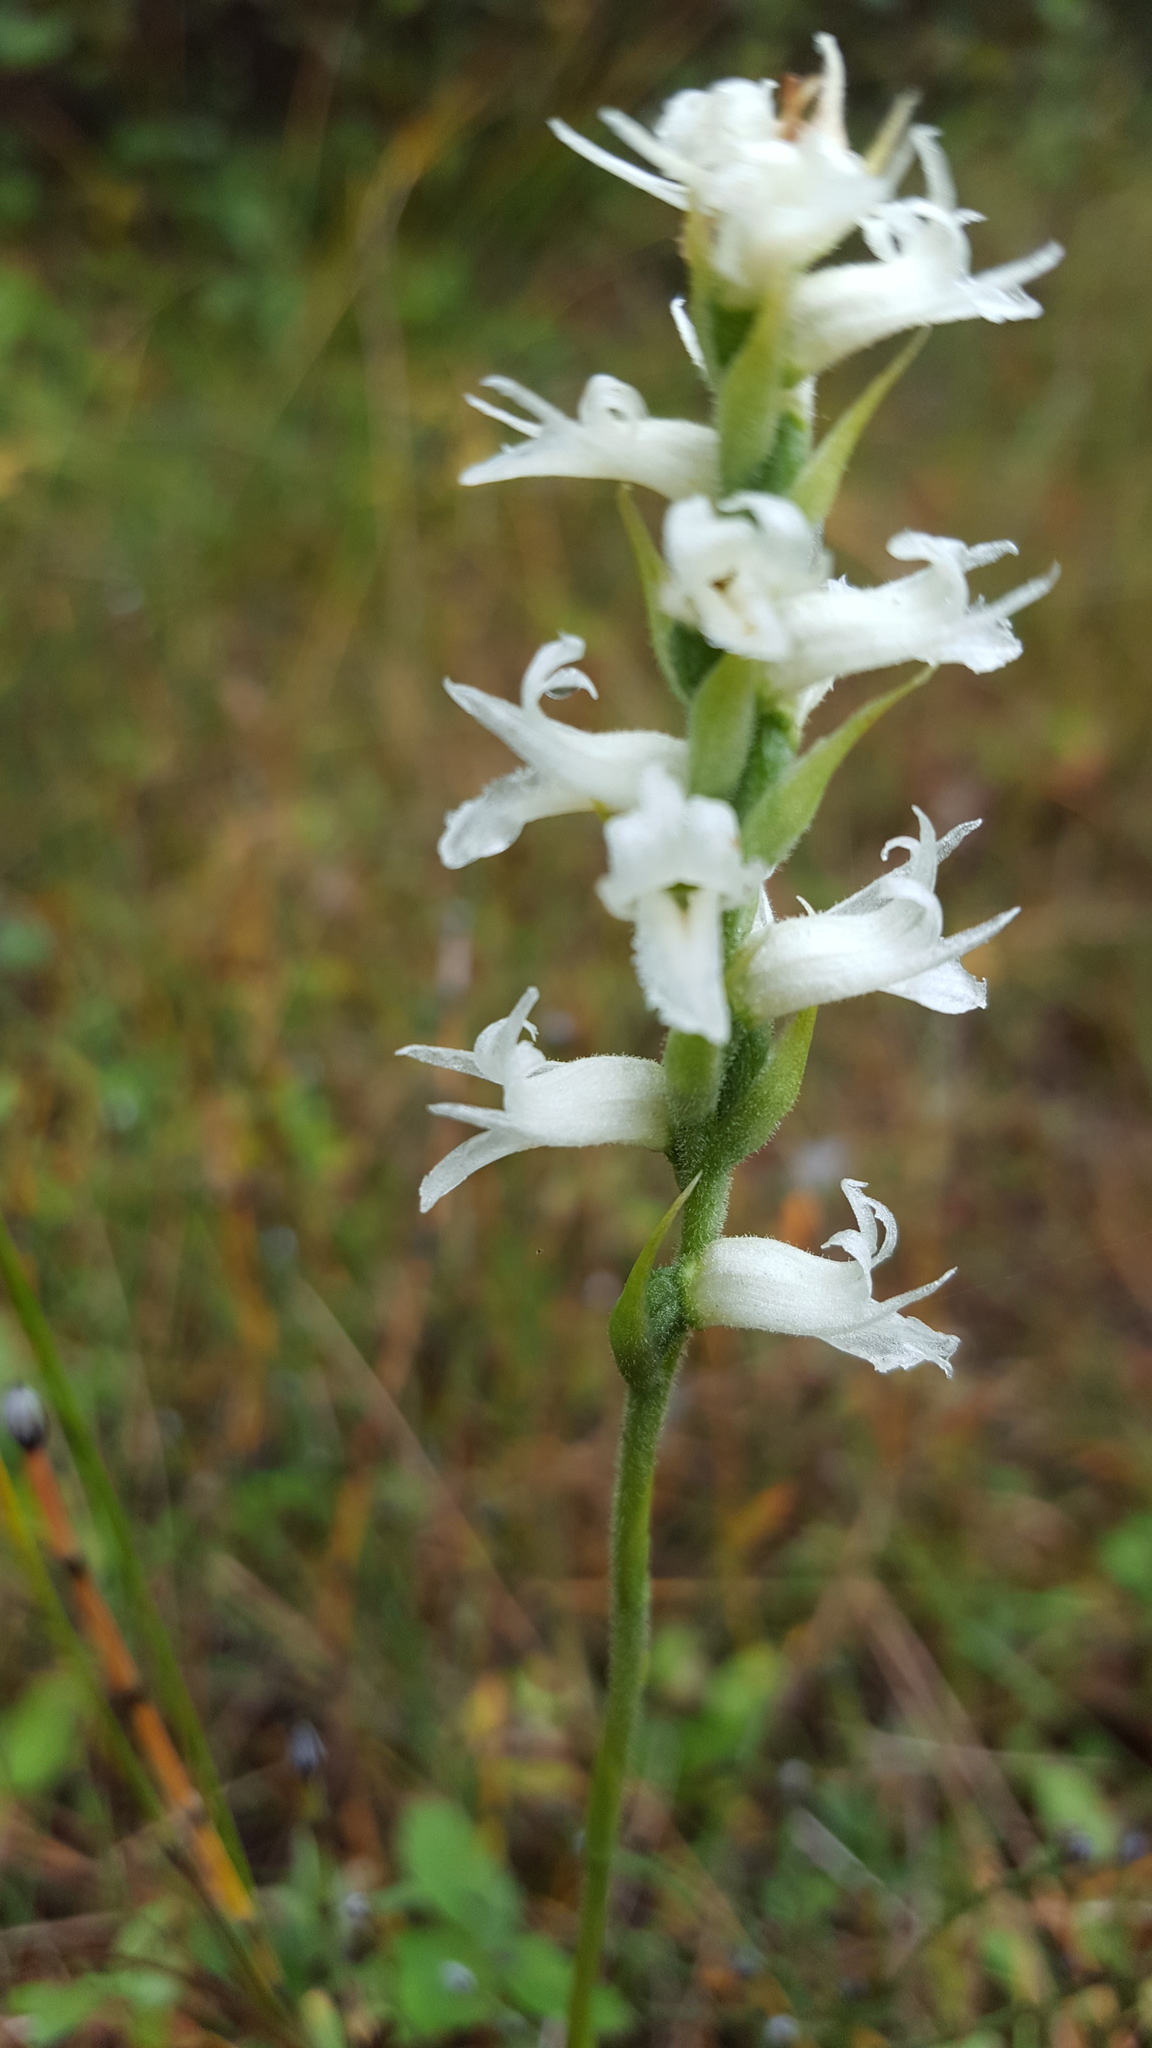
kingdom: Plantae
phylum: Tracheophyta
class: Liliopsida
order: Asparagales
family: Orchidaceae
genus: Spiranthes
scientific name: Spiranthes incurva
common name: Sphinx ladies'-tresses
